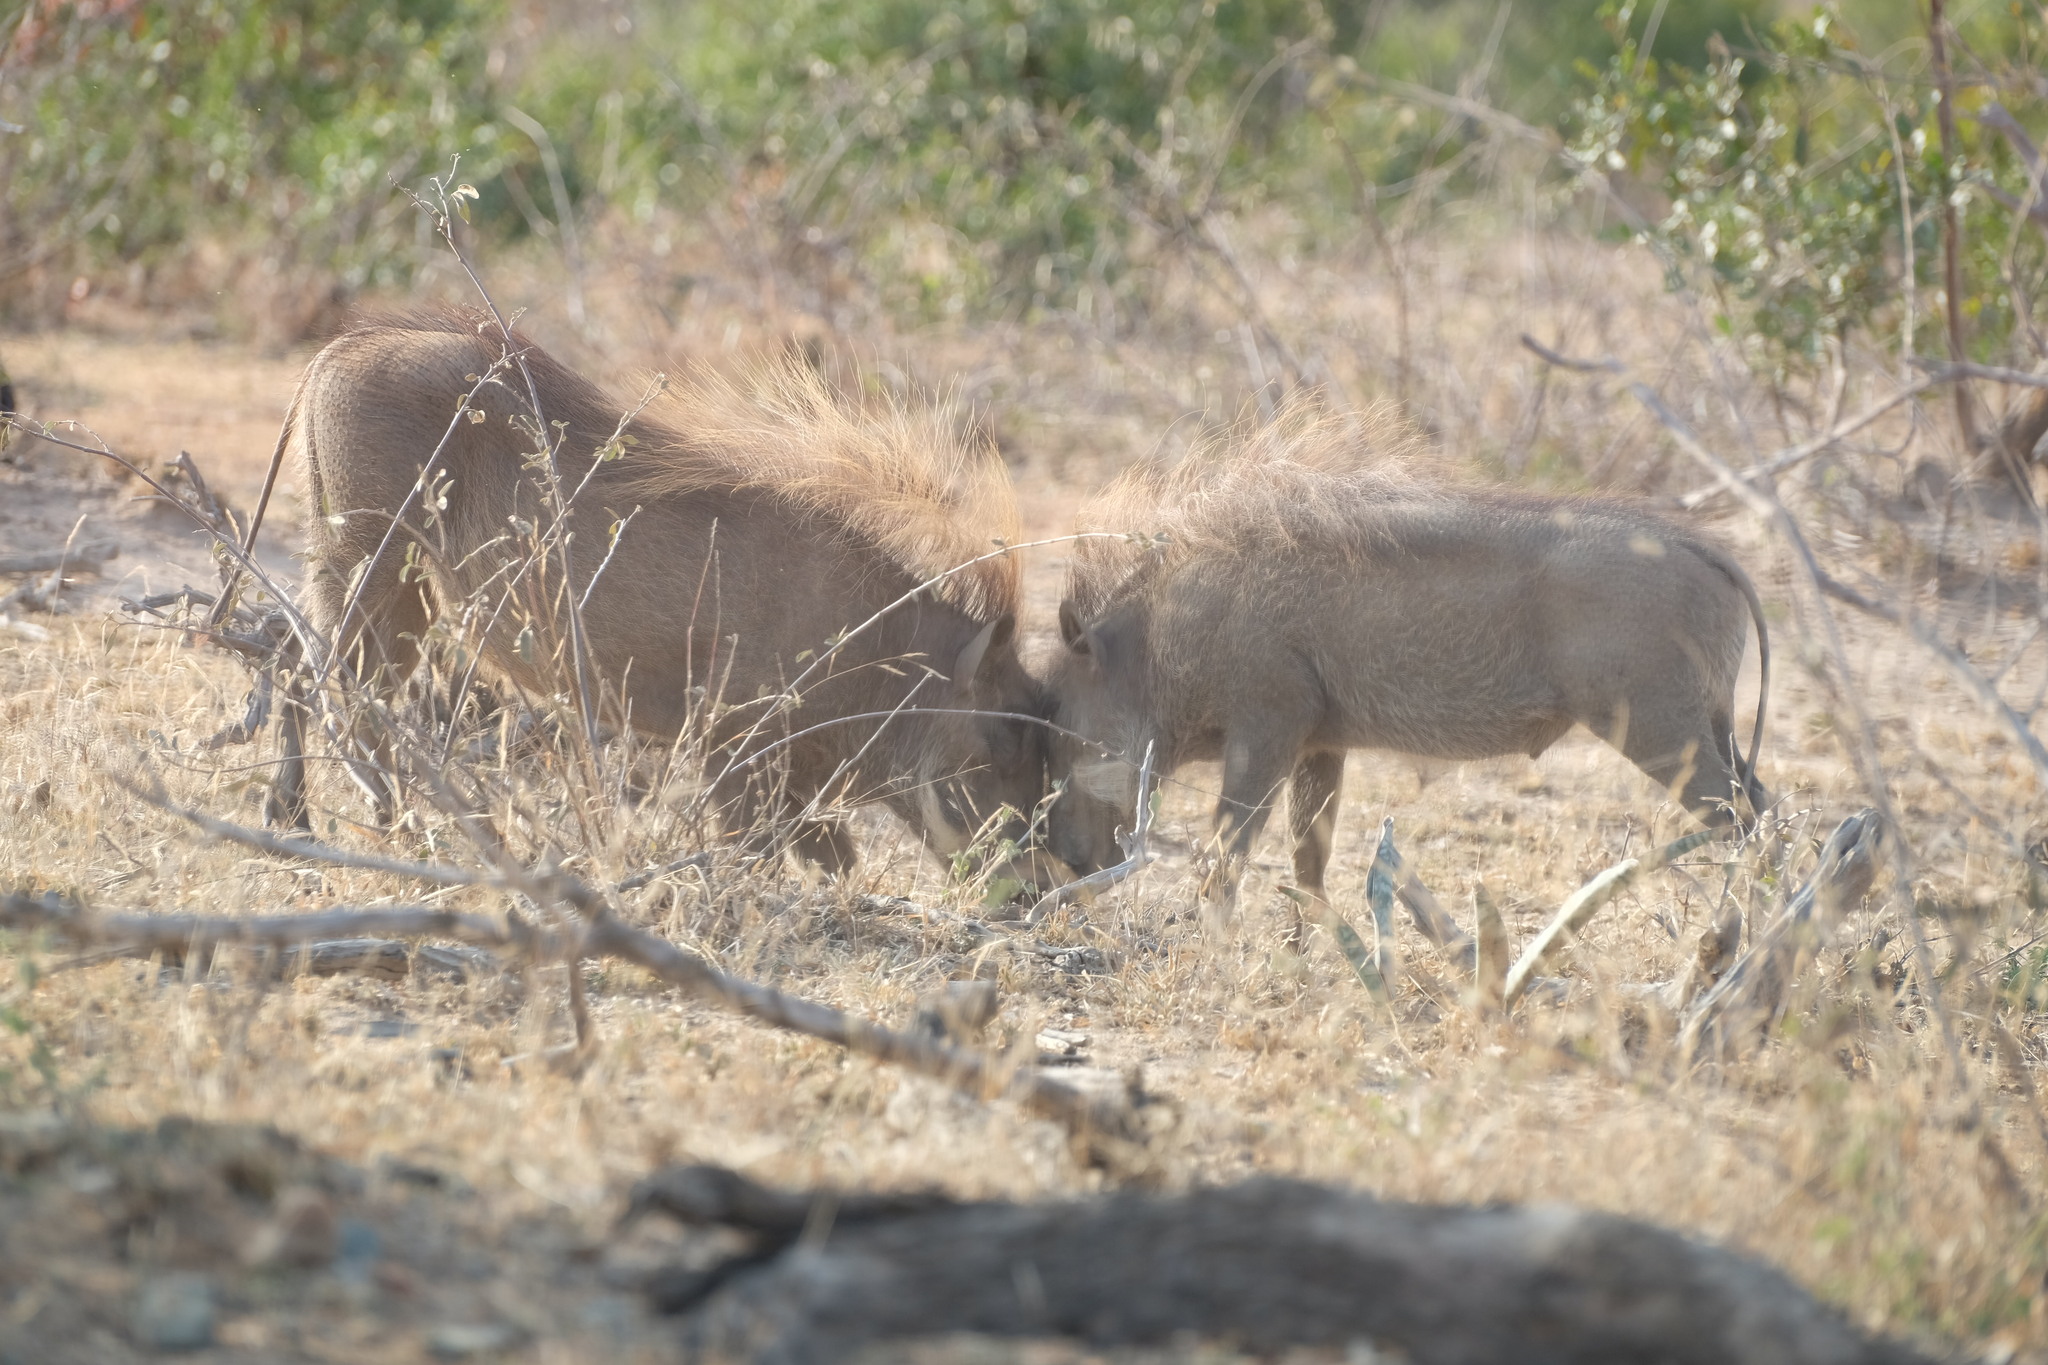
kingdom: Animalia
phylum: Chordata
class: Mammalia
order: Artiodactyla
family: Suidae
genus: Phacochoerus
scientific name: Phacochoerus africanus
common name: Common warthog
